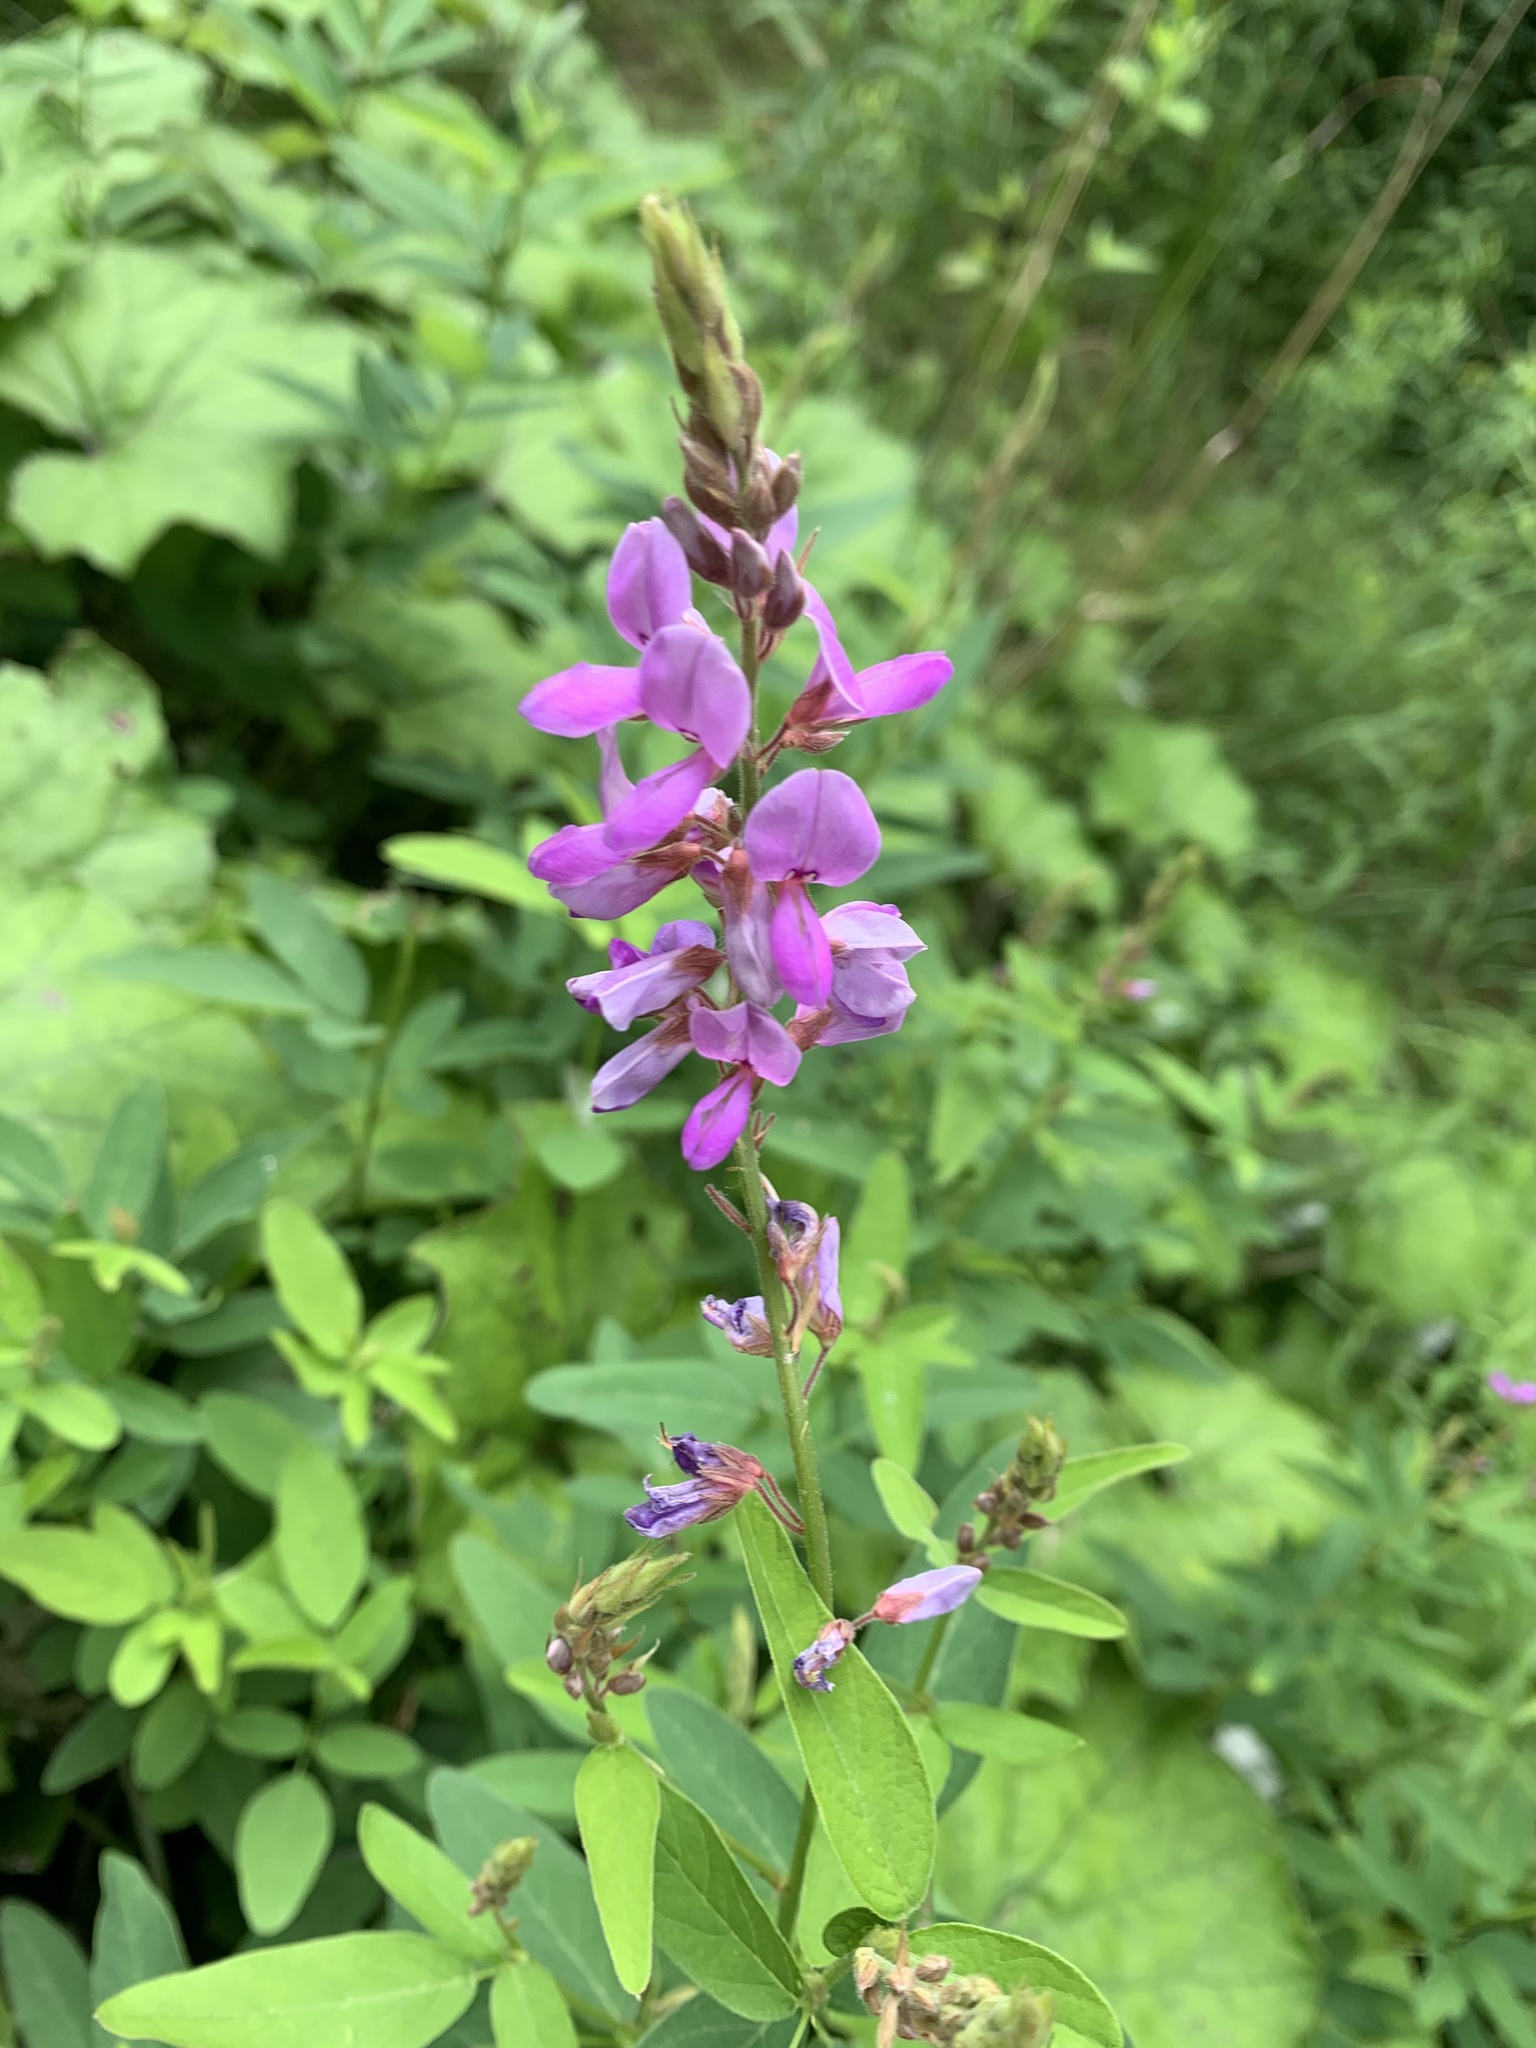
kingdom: Plantae
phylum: Tracheophyta
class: Magnoliopsida
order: Fabales
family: Fabaceae
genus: Desmodium
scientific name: Desmodium canadense
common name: Canada tick-trefoil
